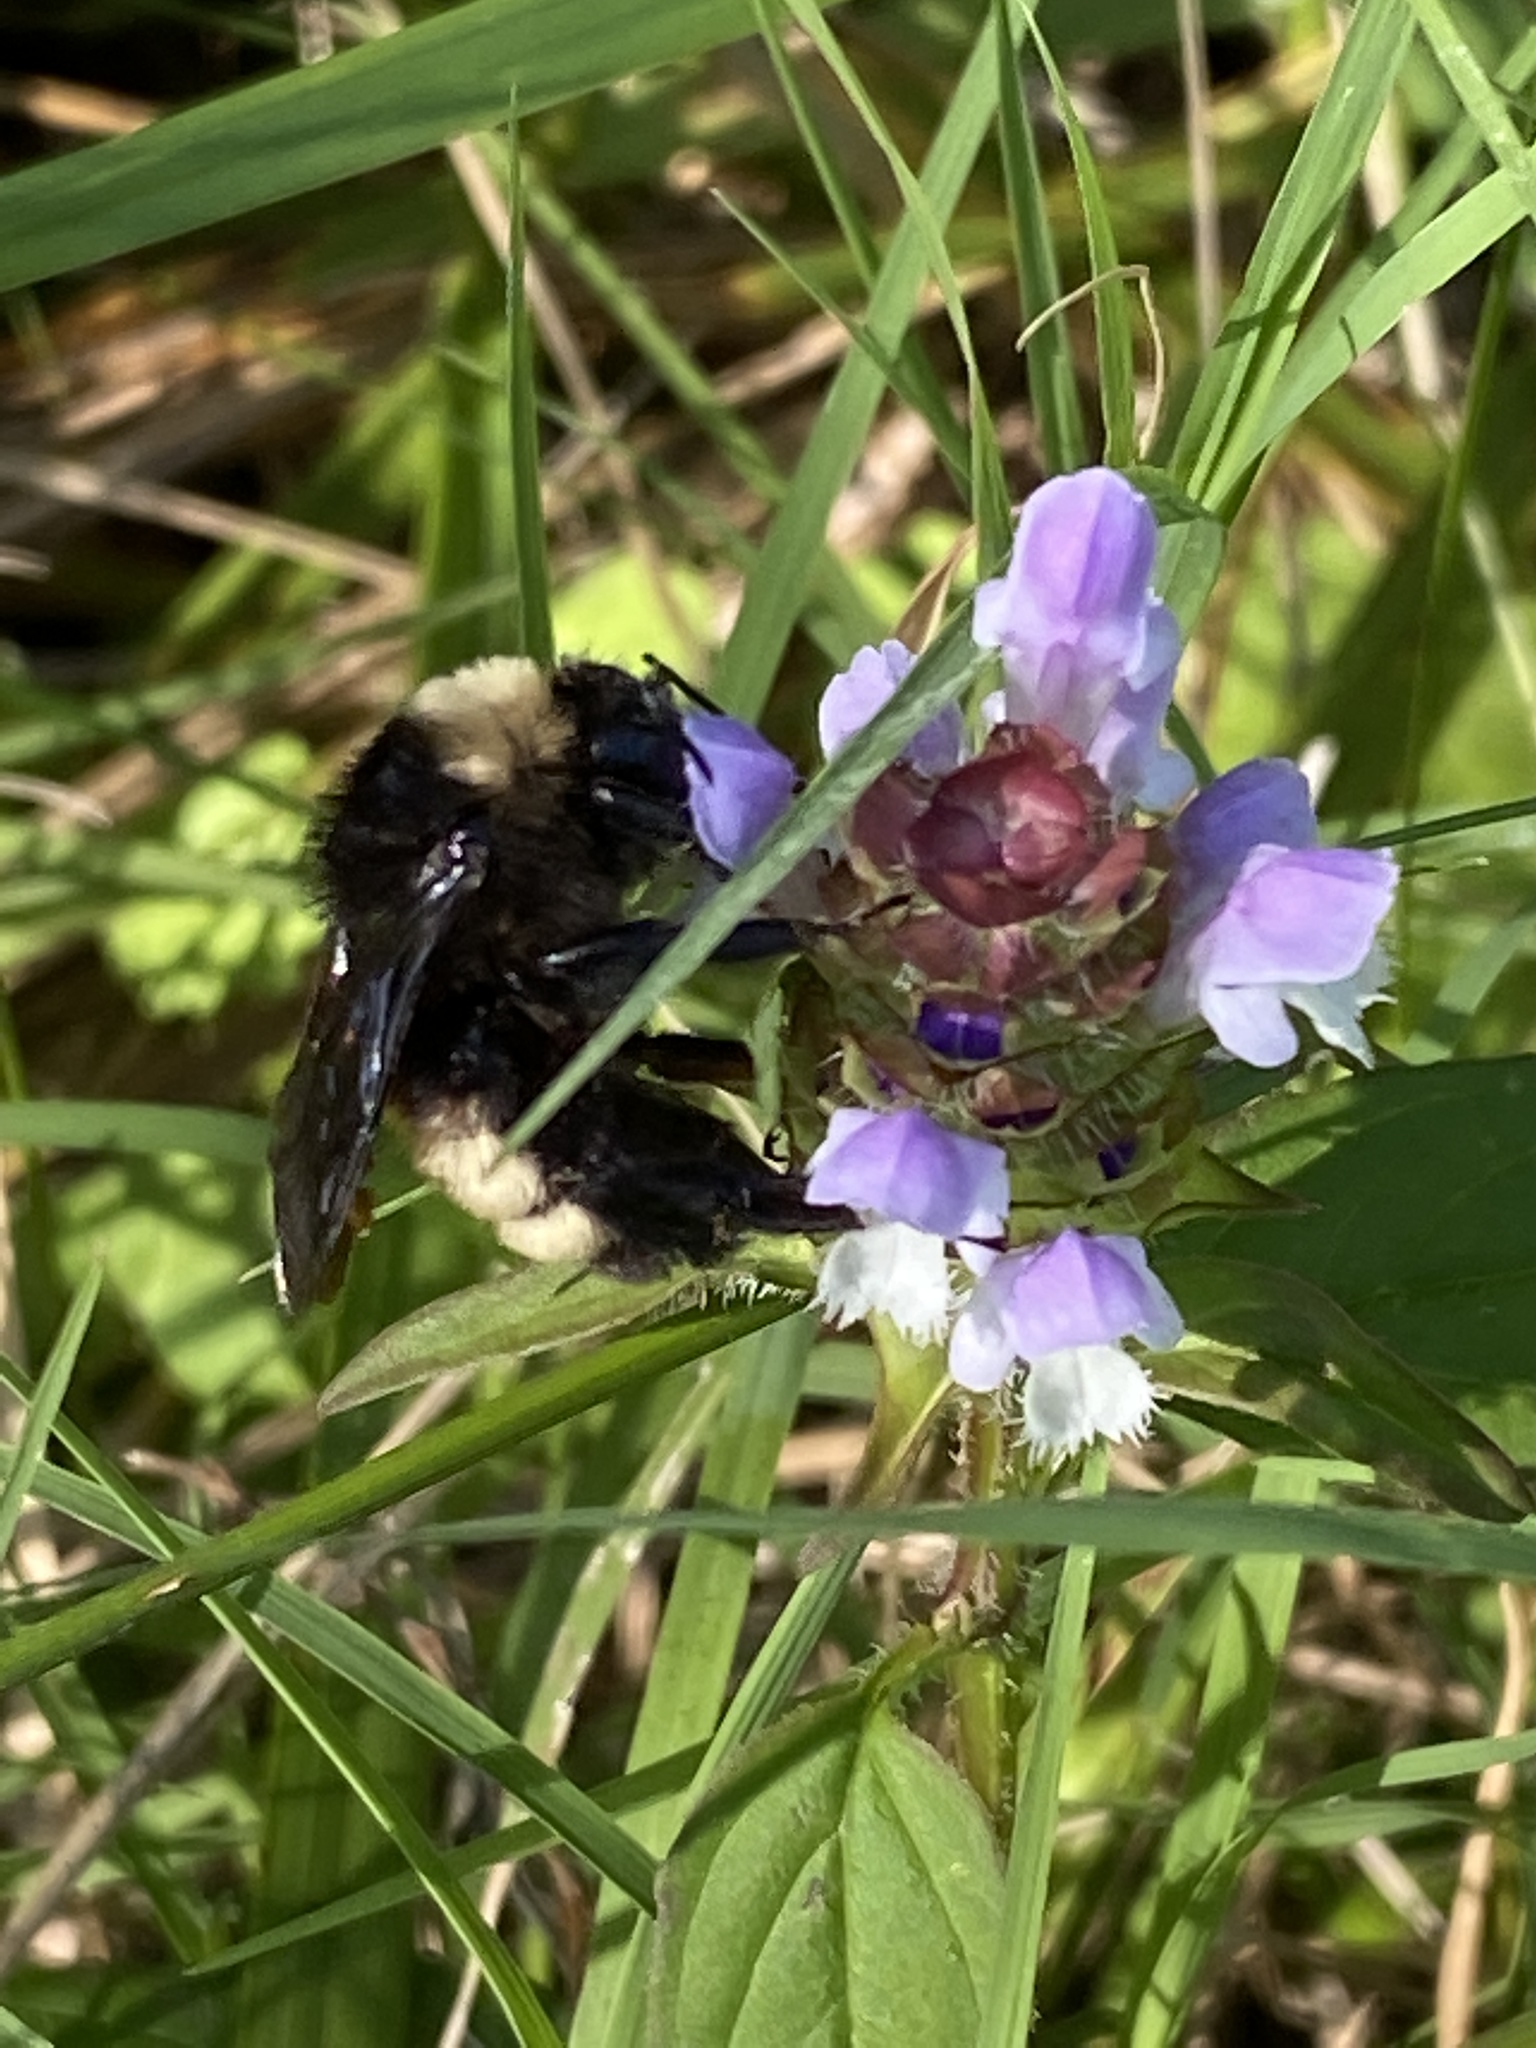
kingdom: Animalia
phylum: Arthropoda
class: Insecta
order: Hymenoptera
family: Apidae
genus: Bombus
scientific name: Bombus pensylvanicus
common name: Bumble bee
